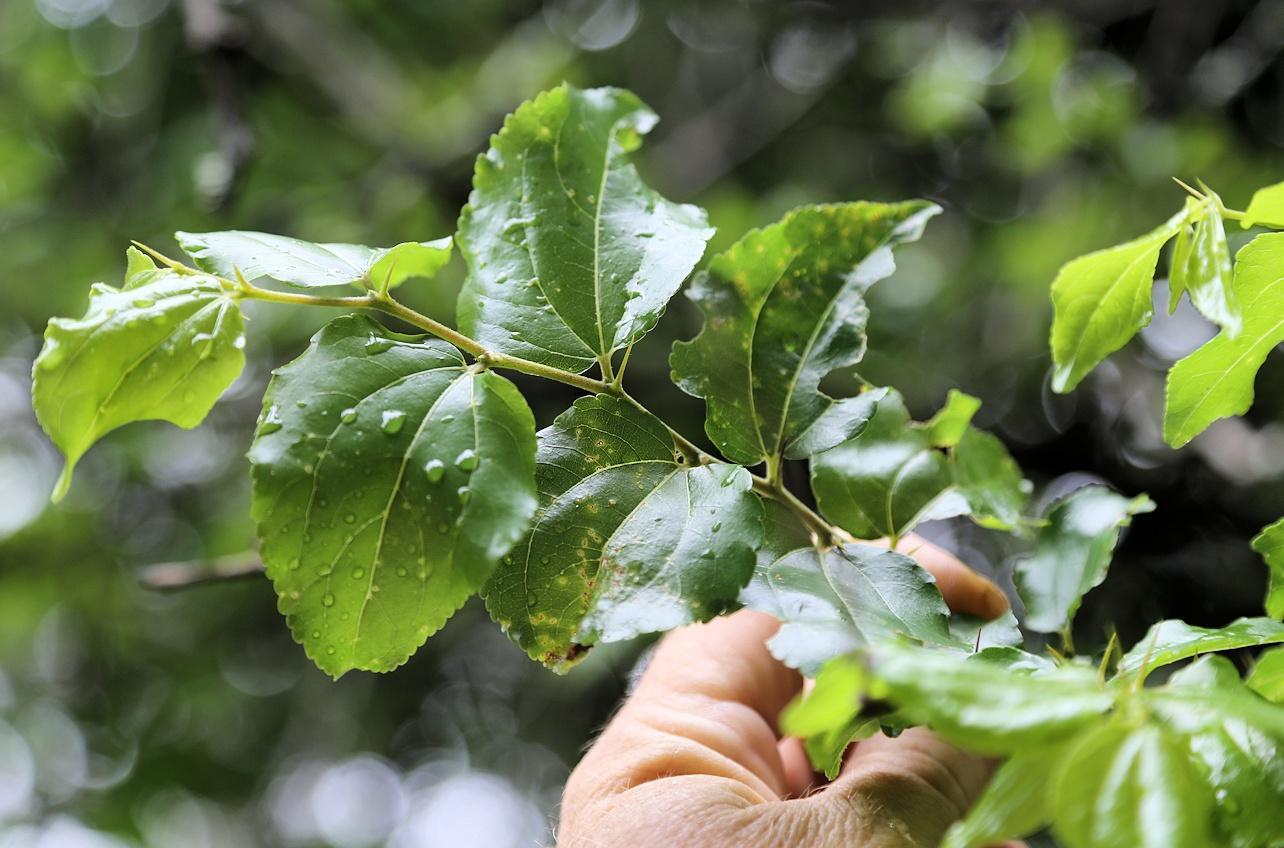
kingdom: Plantae
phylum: Tracheophyta
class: Magnoliopsida
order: Rosales
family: Rhamnaceae
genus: Ziziphus
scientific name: Ziziphus mucronata
